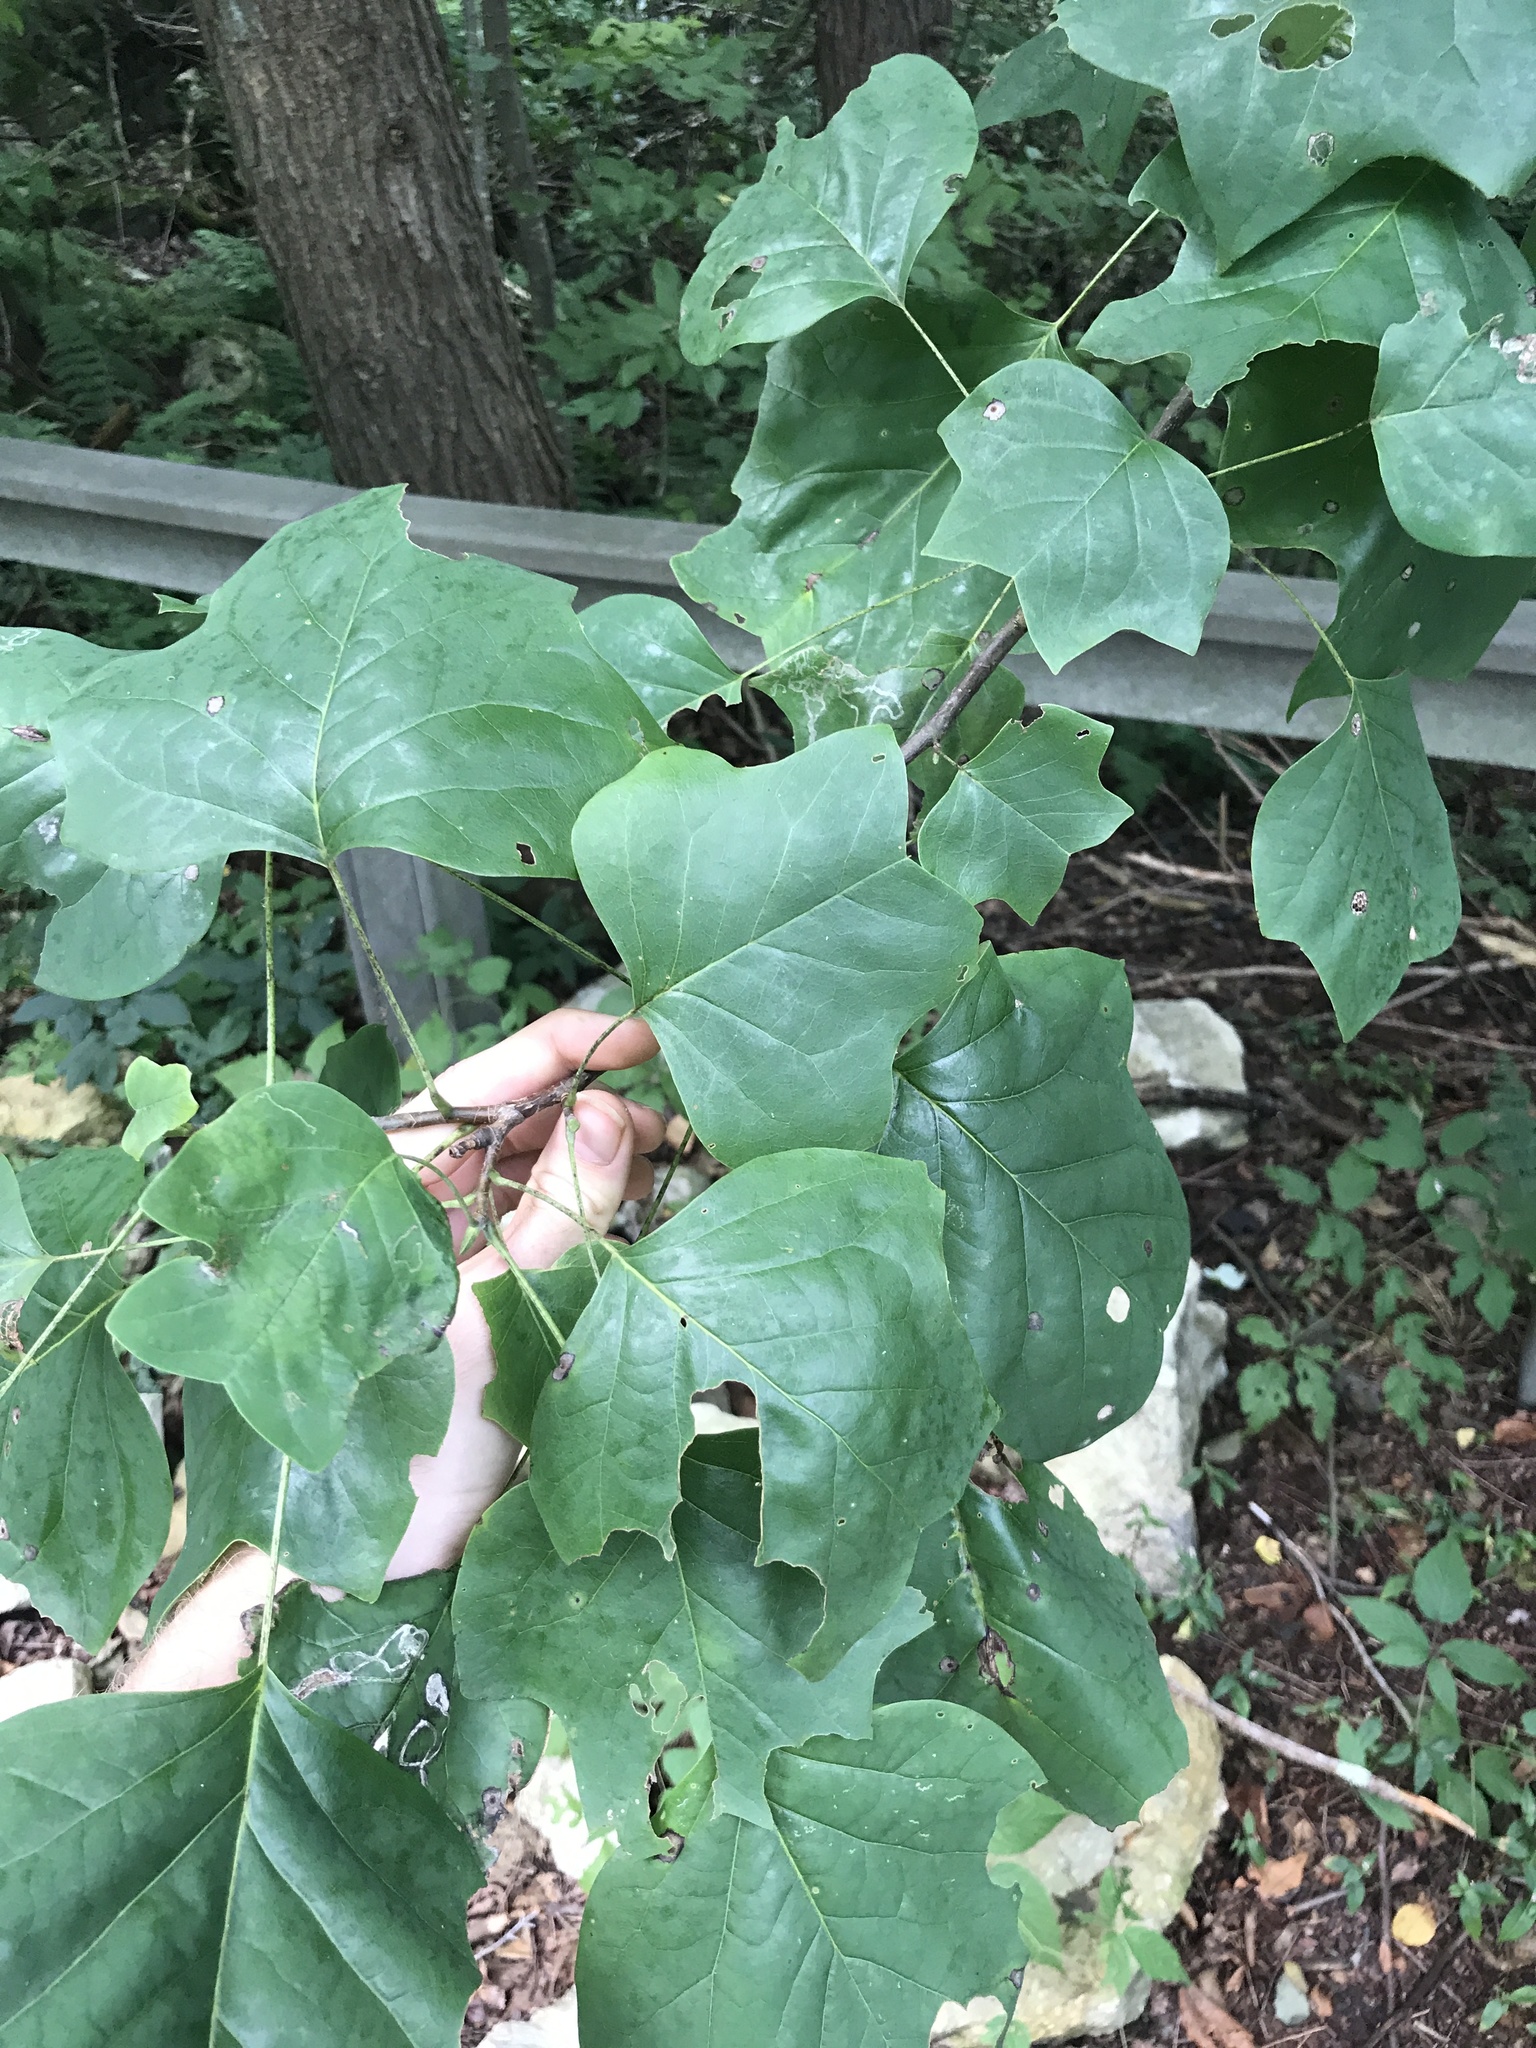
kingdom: Plantae
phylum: Tracheophyta
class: Magnoliopsida
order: Magnoliales
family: Magnoliaceae
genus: Liriodendron
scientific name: Liriodendron tulipifera
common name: Tulip tree
